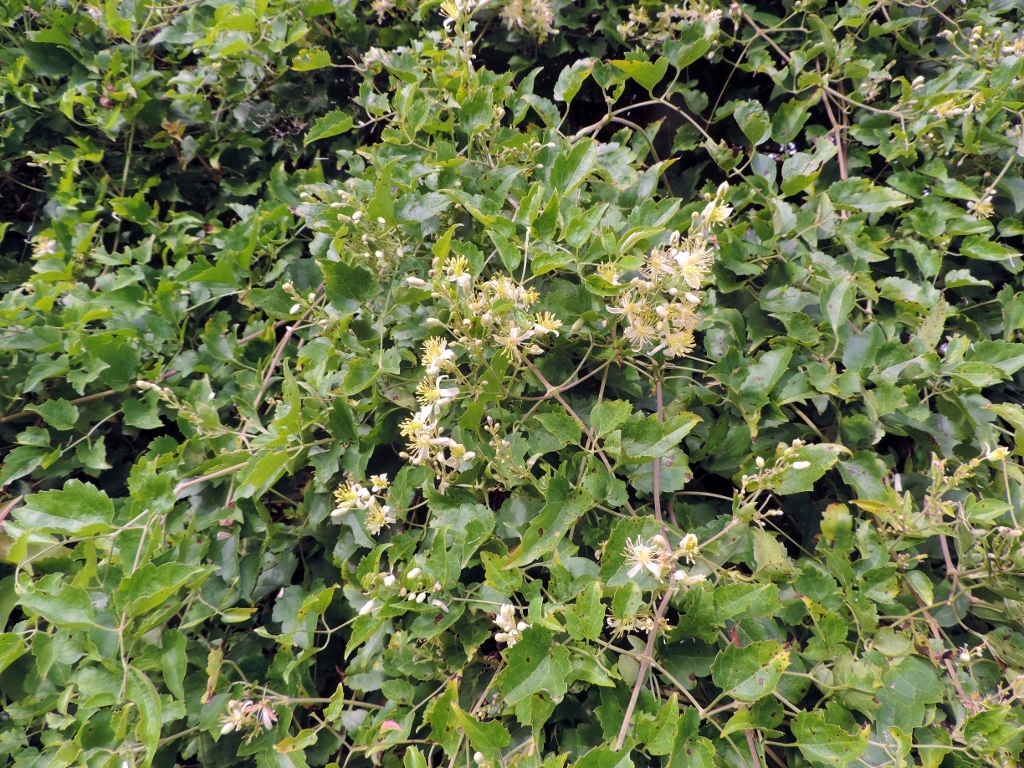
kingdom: Plantae
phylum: Tracheophyta
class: Magnoliopsida
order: Ranunculales
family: Ranunculaceae
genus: Clematis
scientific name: Clematis brachiata
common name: Traveler's-joy
